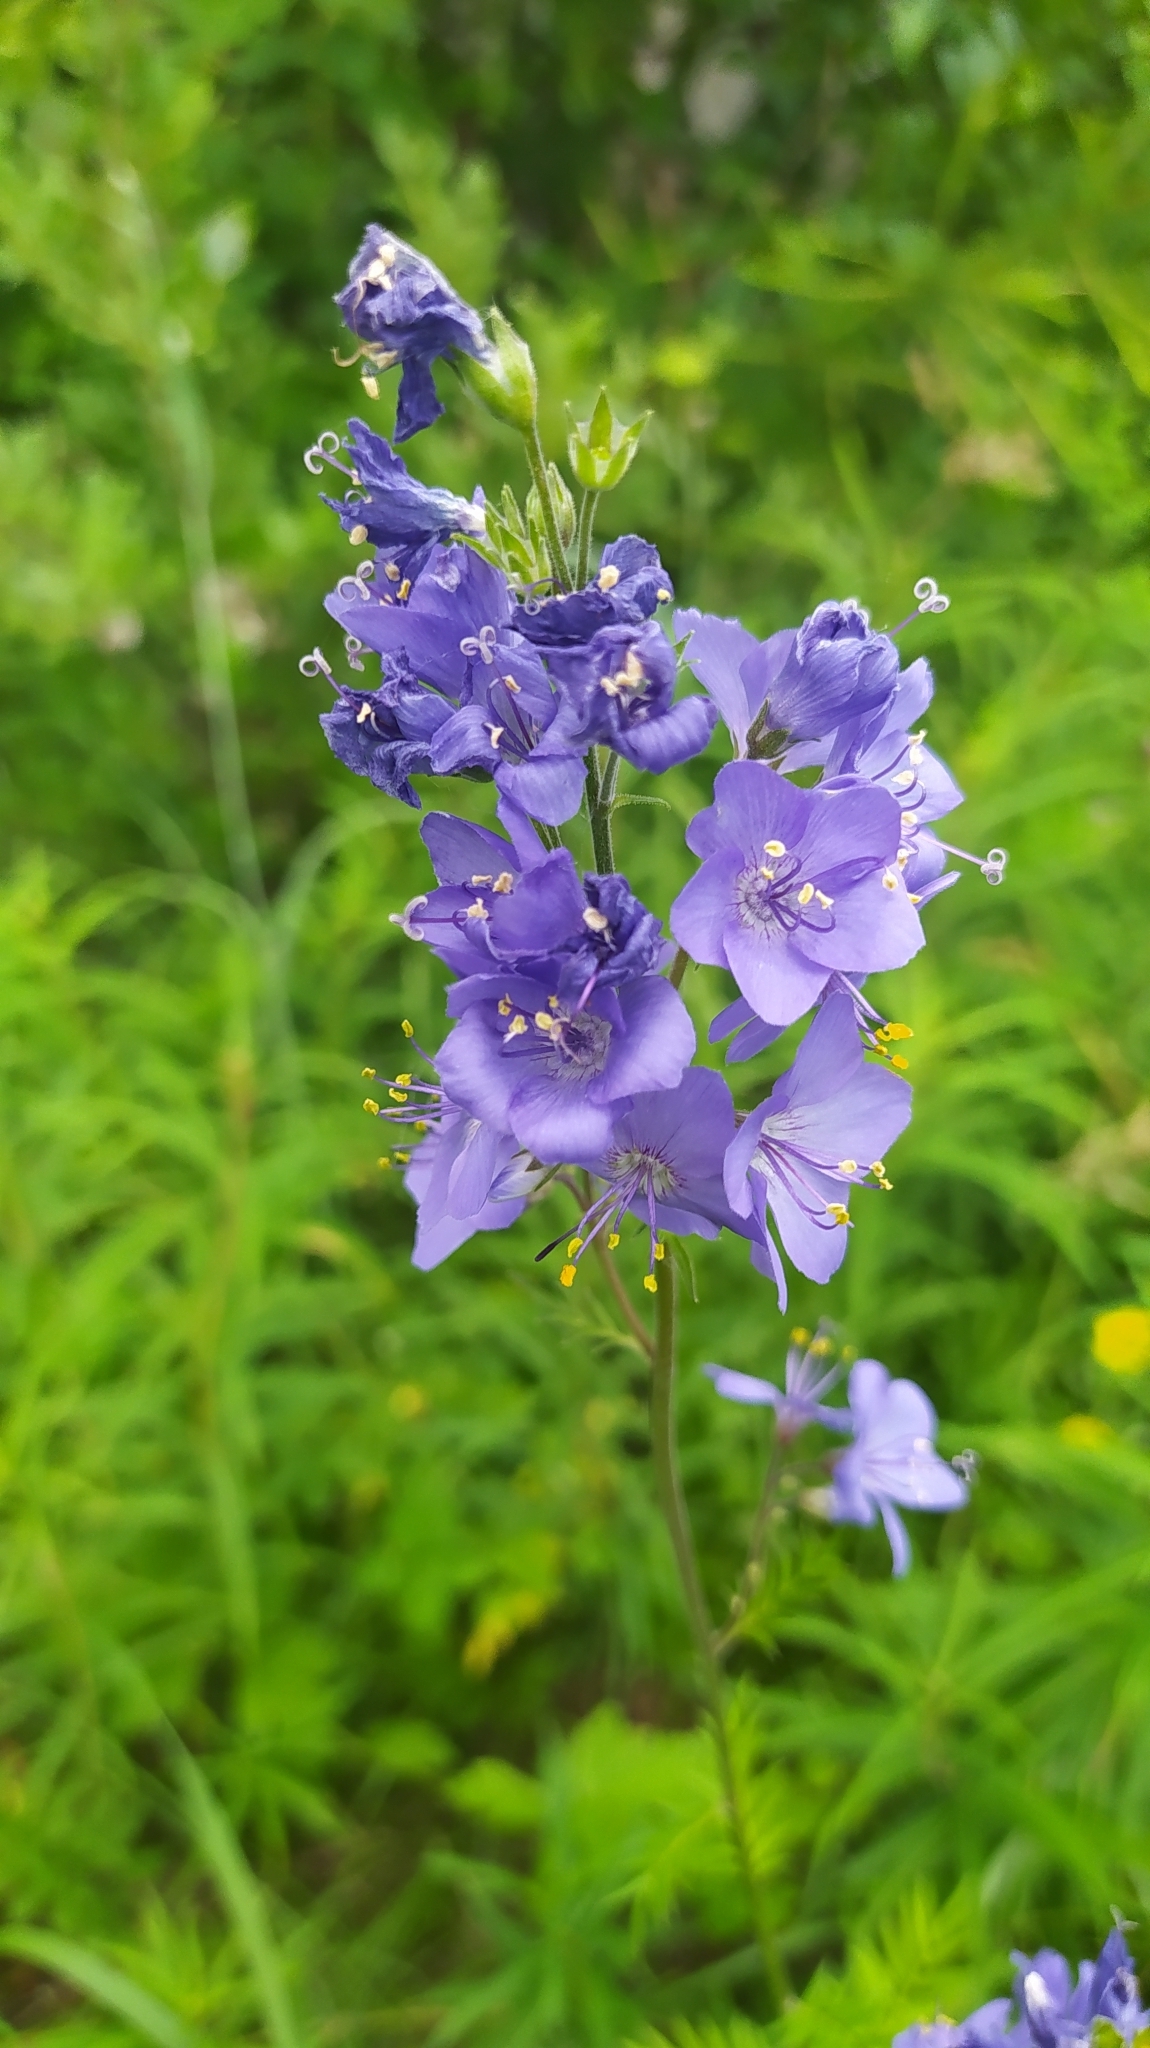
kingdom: Plantae
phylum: Tracheophyta
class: Magnoliopsida
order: Ericales
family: Polemoniaceae
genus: Polemonium
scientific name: Polemonium caeruleum
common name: Jacob's-ladder
